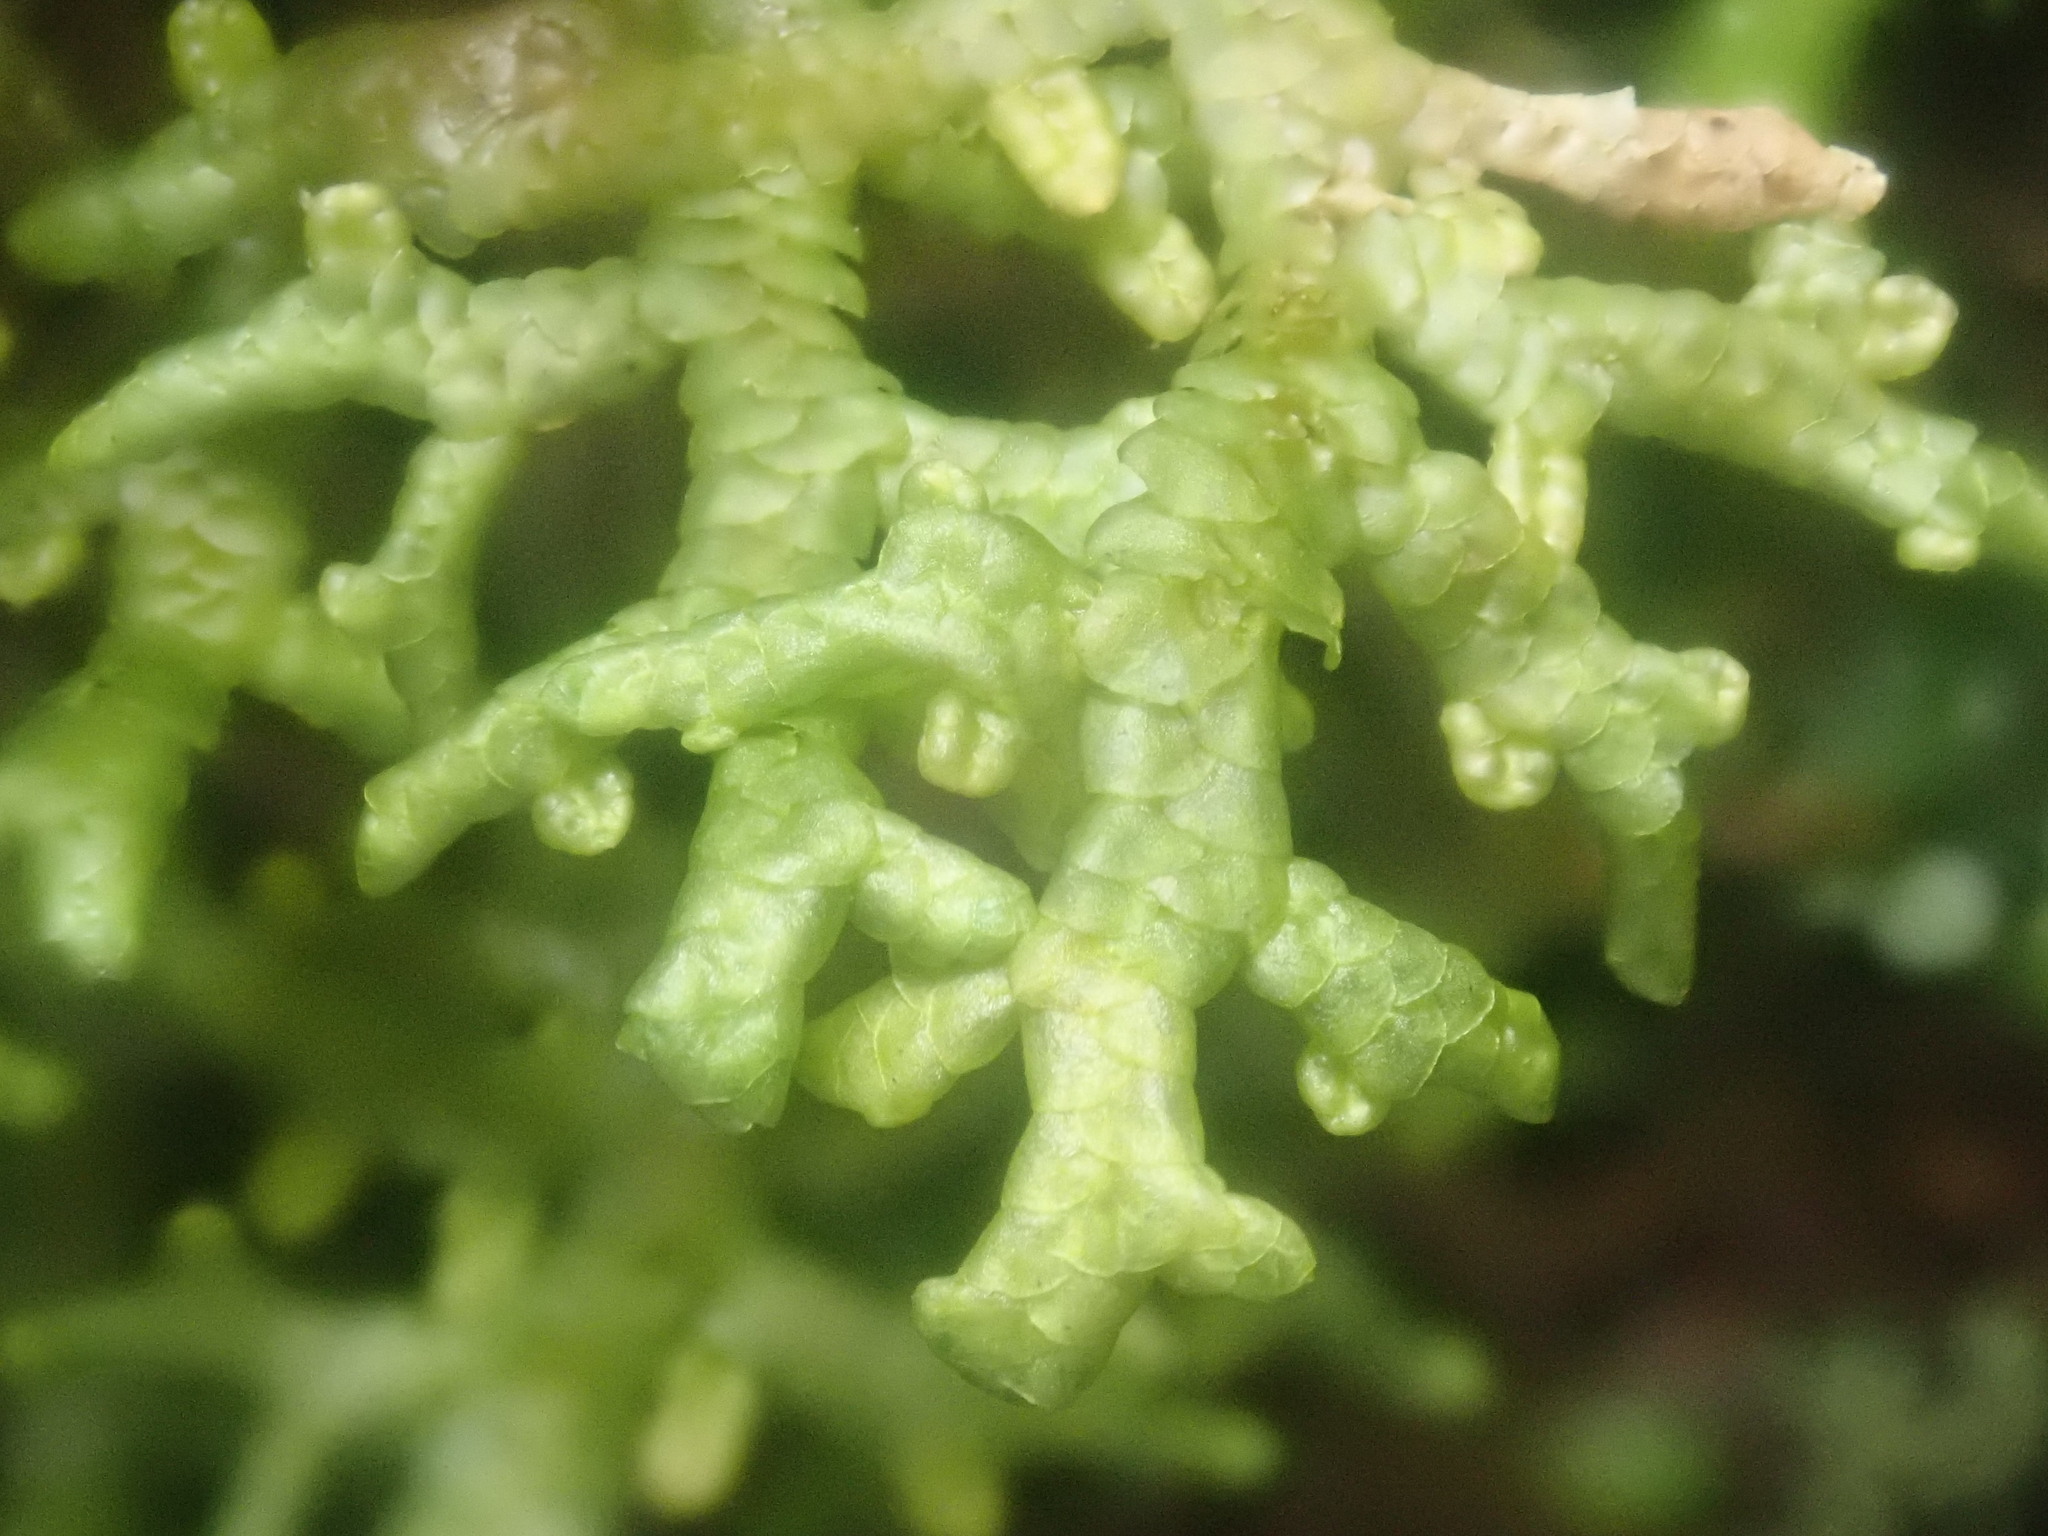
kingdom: Plantae
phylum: Marchantiophyta
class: Jungermanniopsida
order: Porellales
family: Porellaceae
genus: Porella
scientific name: Porella platyphylla
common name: Wall scalewort
